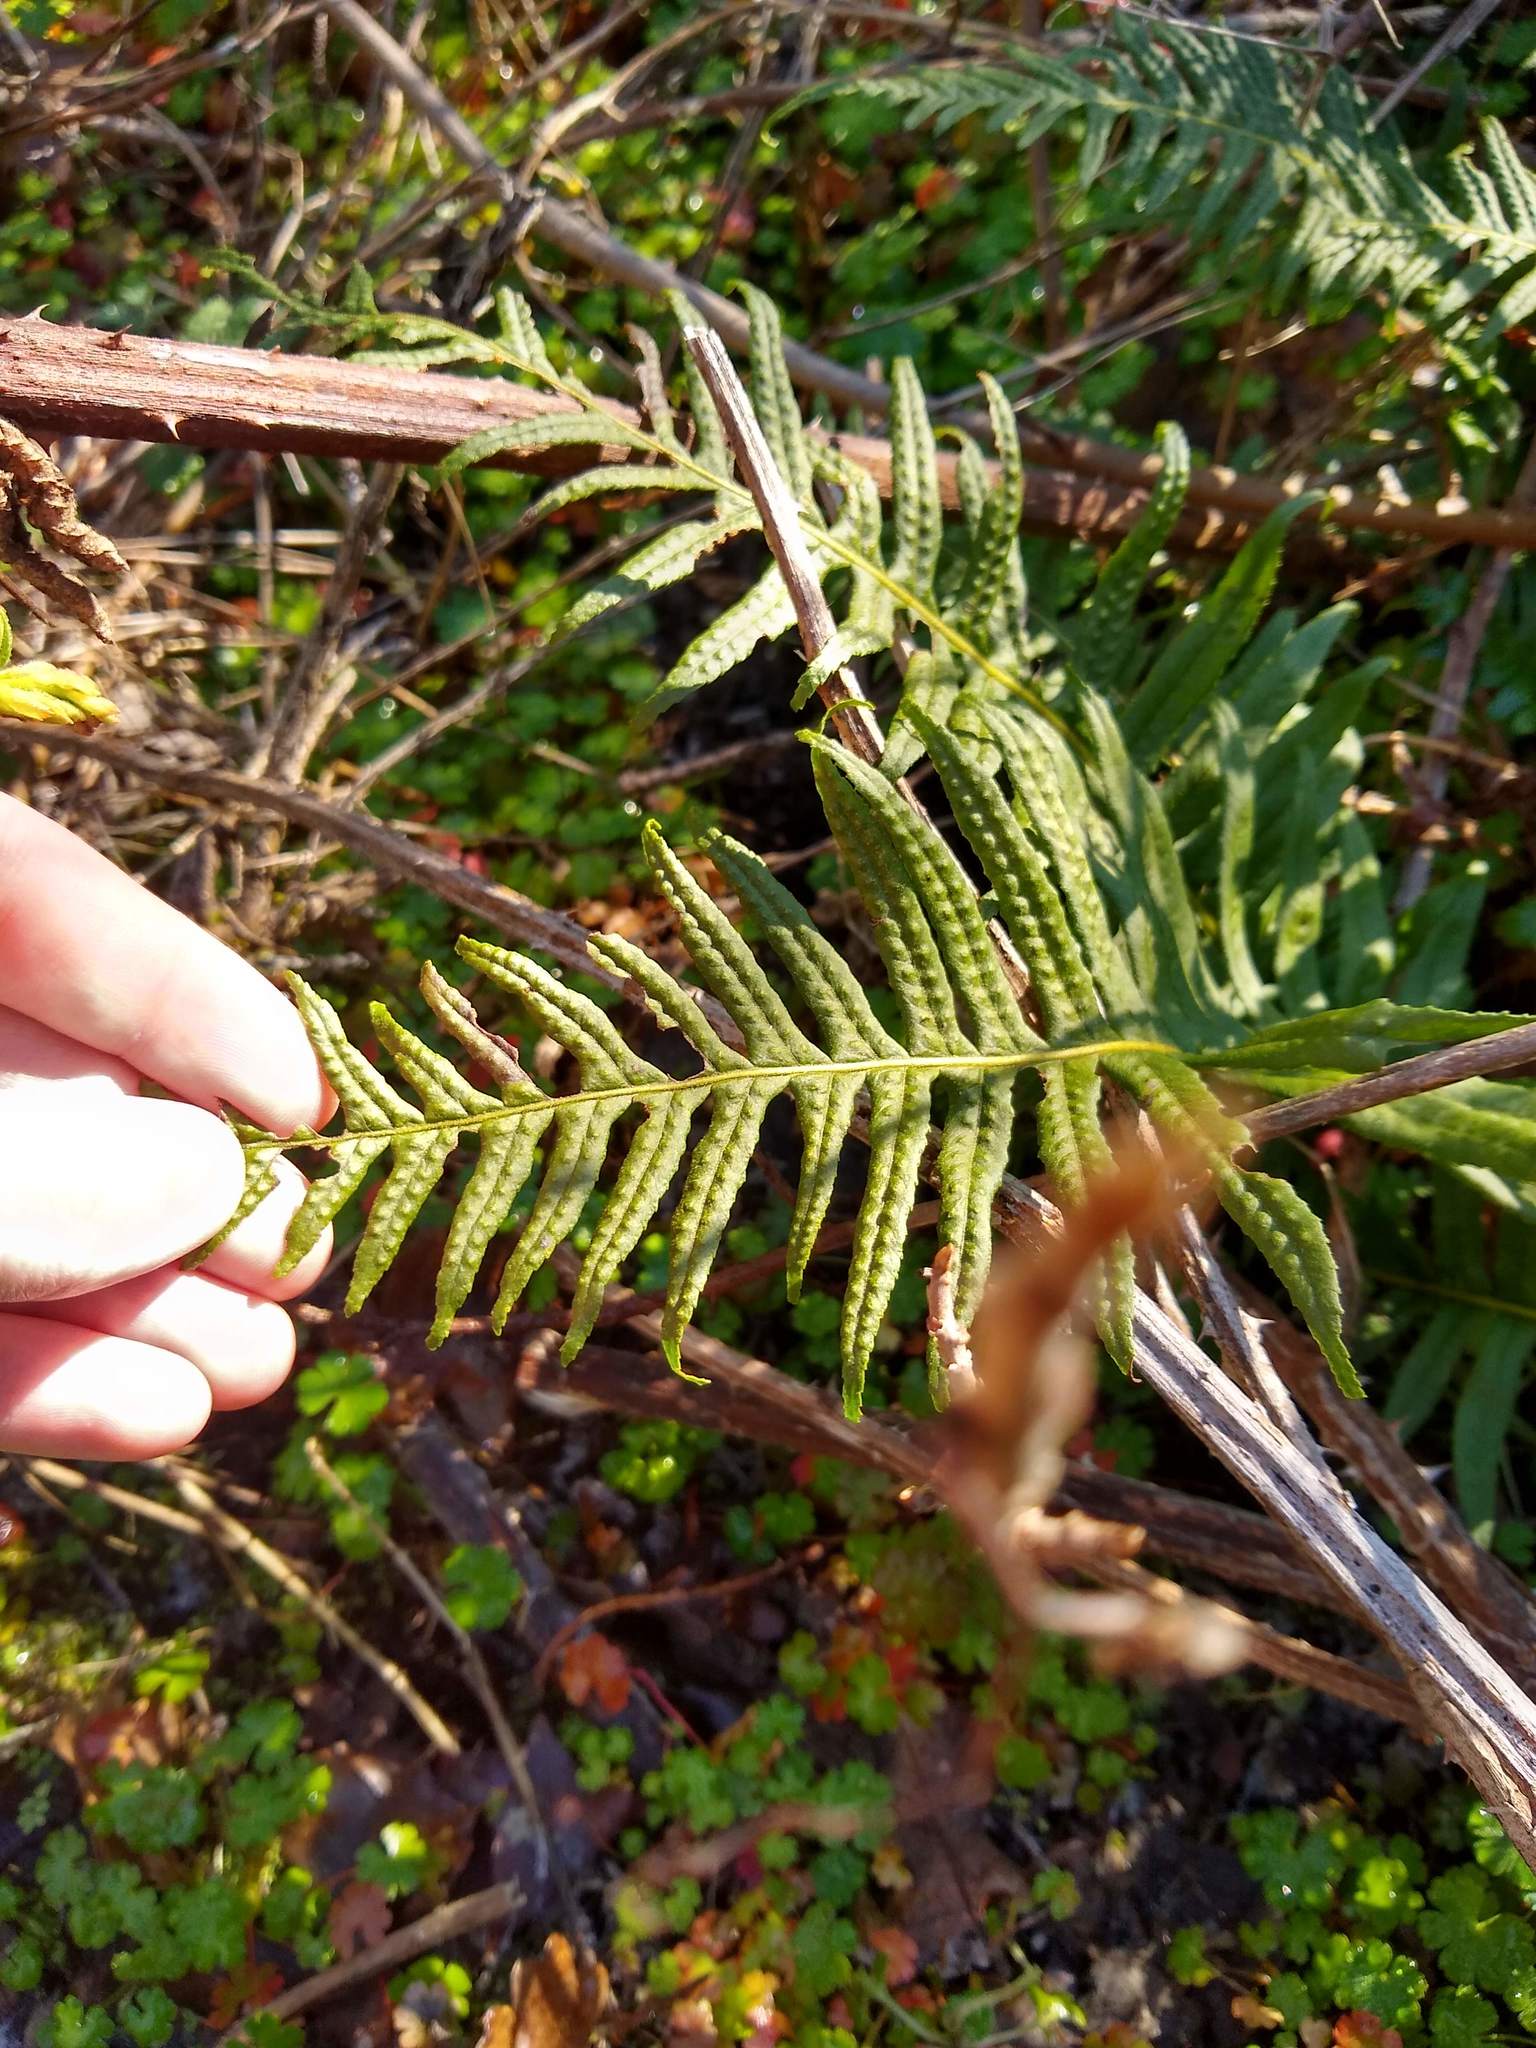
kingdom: Plantae
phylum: Tracheophyta
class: Polypodiopsida
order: Polypodiales
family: Polypodiaceae
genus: Polypodium
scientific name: Polypodium glycyrrhiza
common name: Licorice fern
